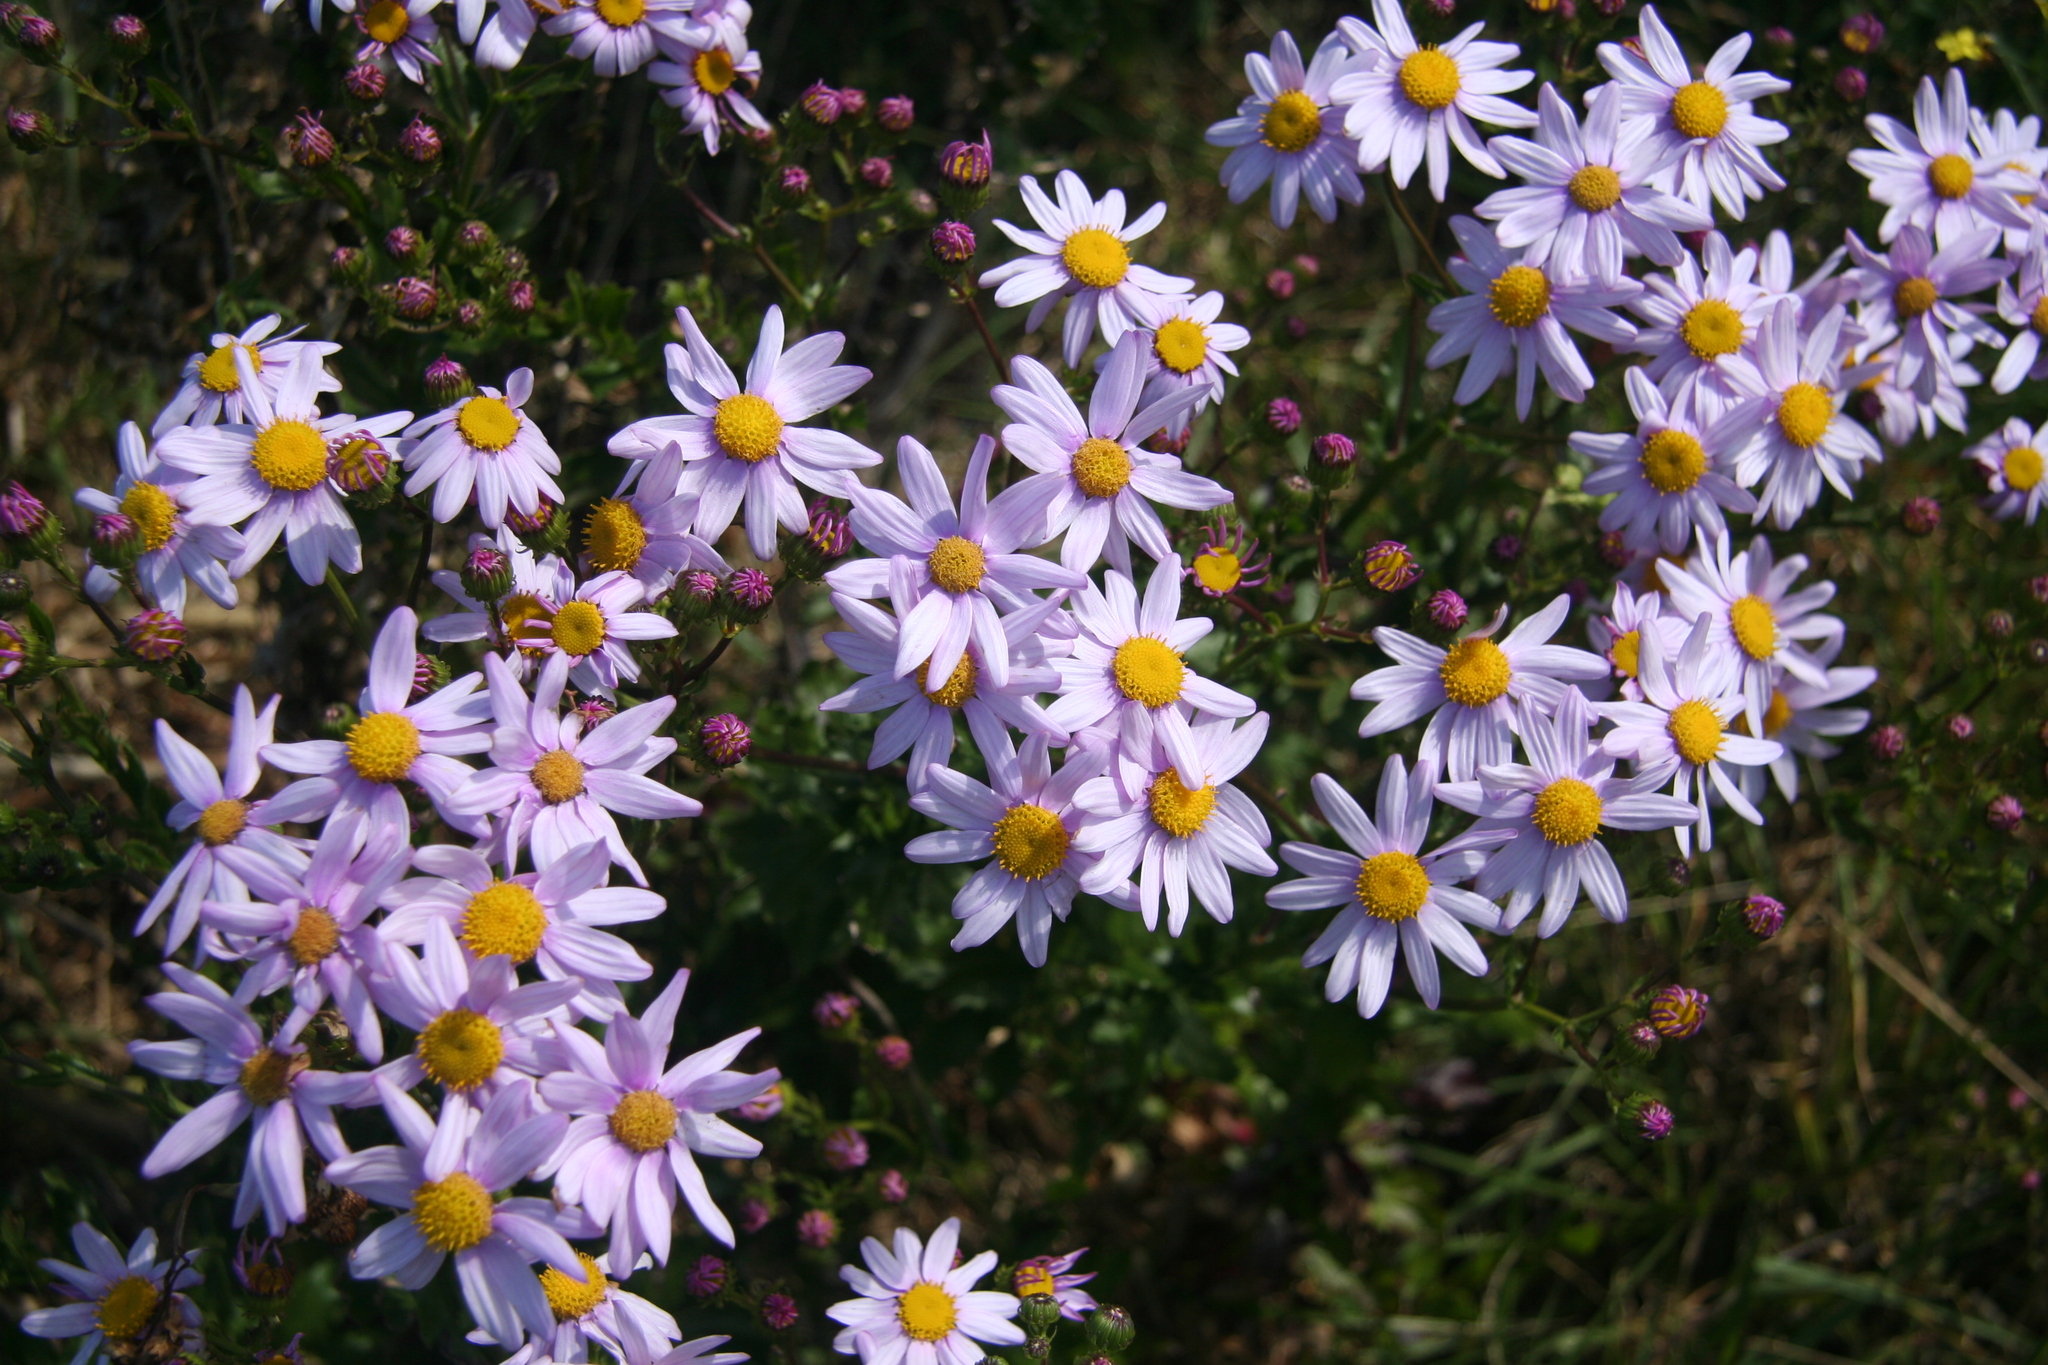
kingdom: Plantae
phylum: Tracheophyta
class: Magnoliopsida
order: Asterales
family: Asteraceae
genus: Senecio
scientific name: Senecio glastifolius
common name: Woad-leaved ragwort
